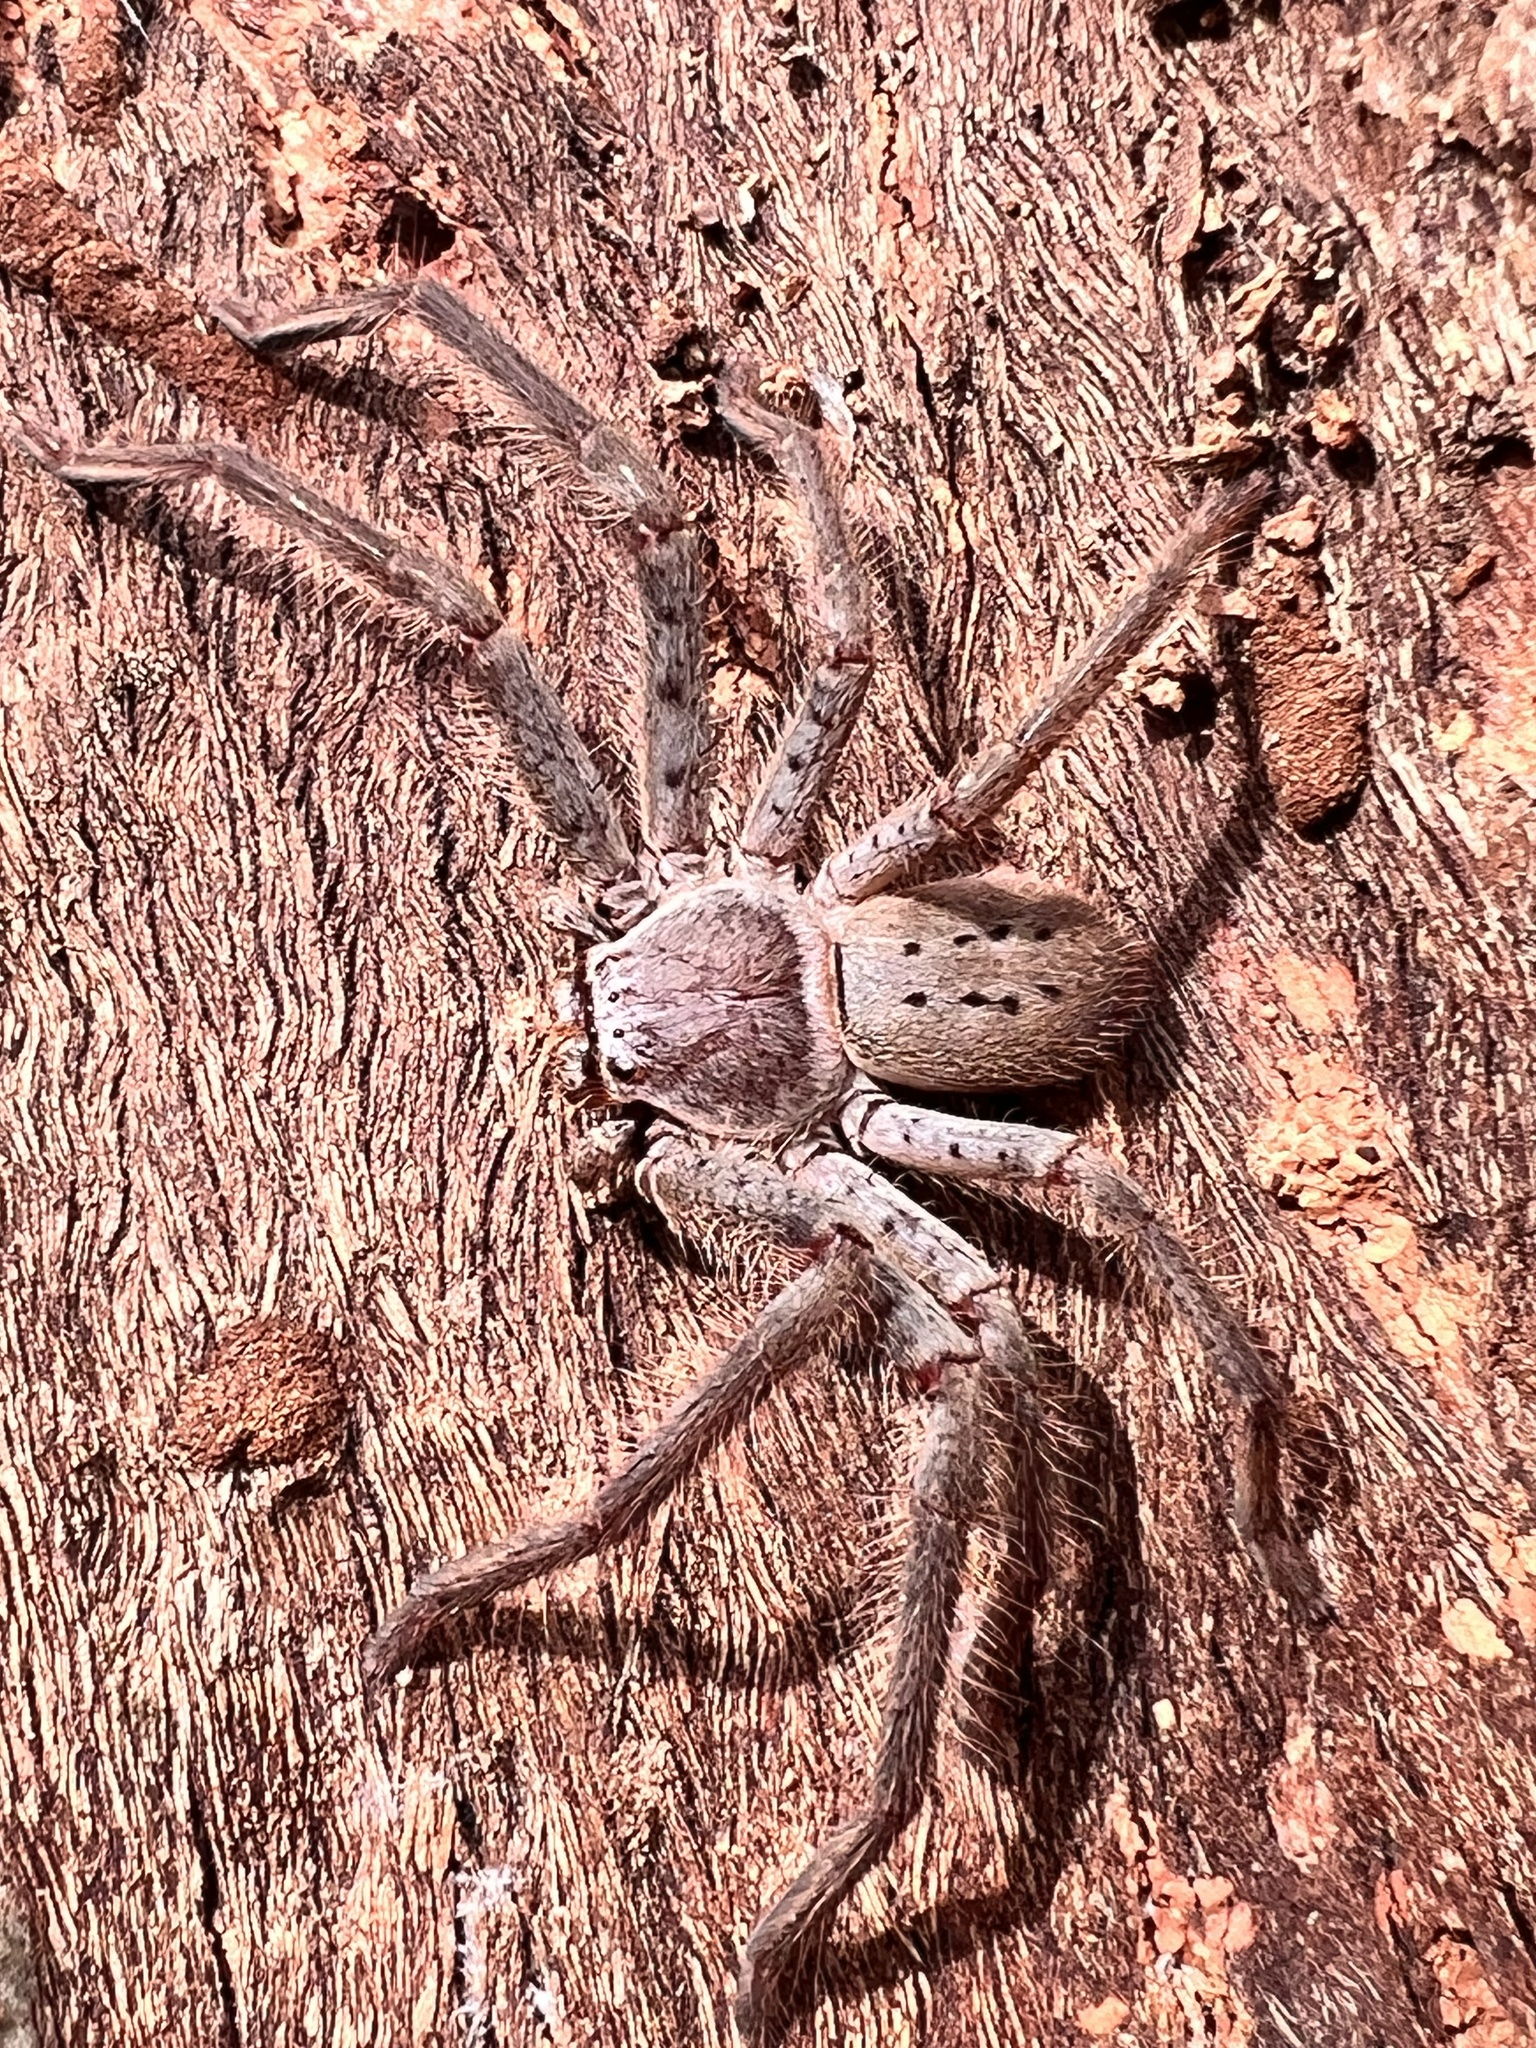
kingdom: Animalia
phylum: Arthropoda
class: Arachnida
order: Araneae
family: Sparassidae
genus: Isopeda
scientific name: Isopeda villosa
